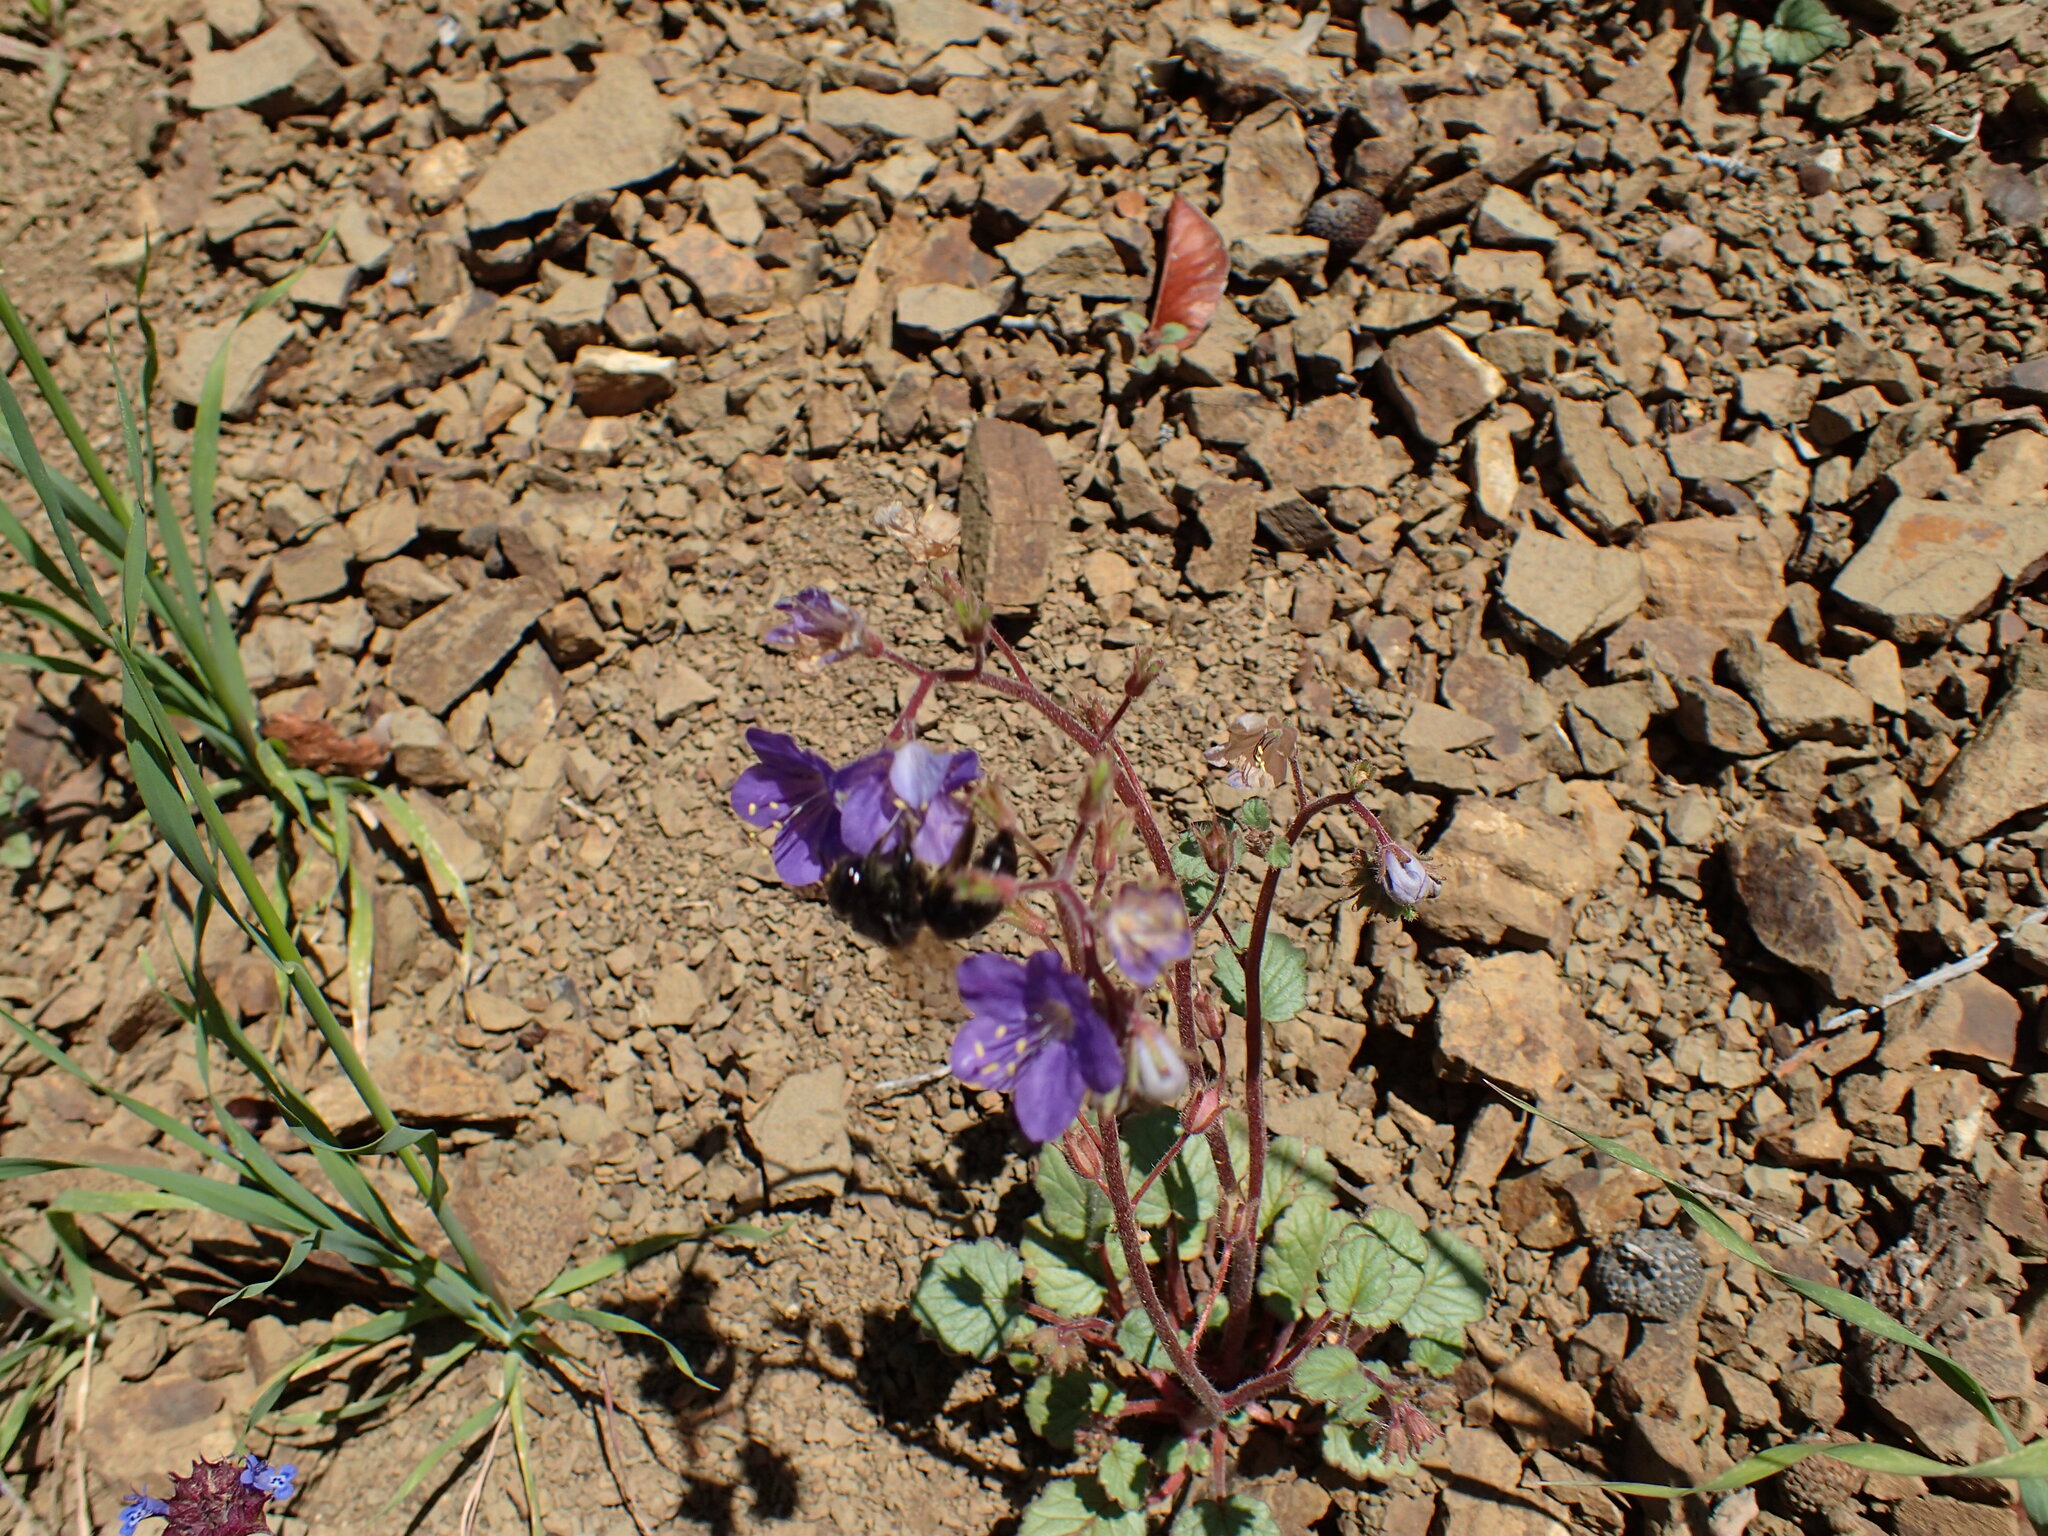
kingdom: Plantae
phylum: Tracheophyta
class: Magnoliopsida
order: Boraginales
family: Hydrophyllaceae
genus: Phacelia
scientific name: Phacelia longipes
